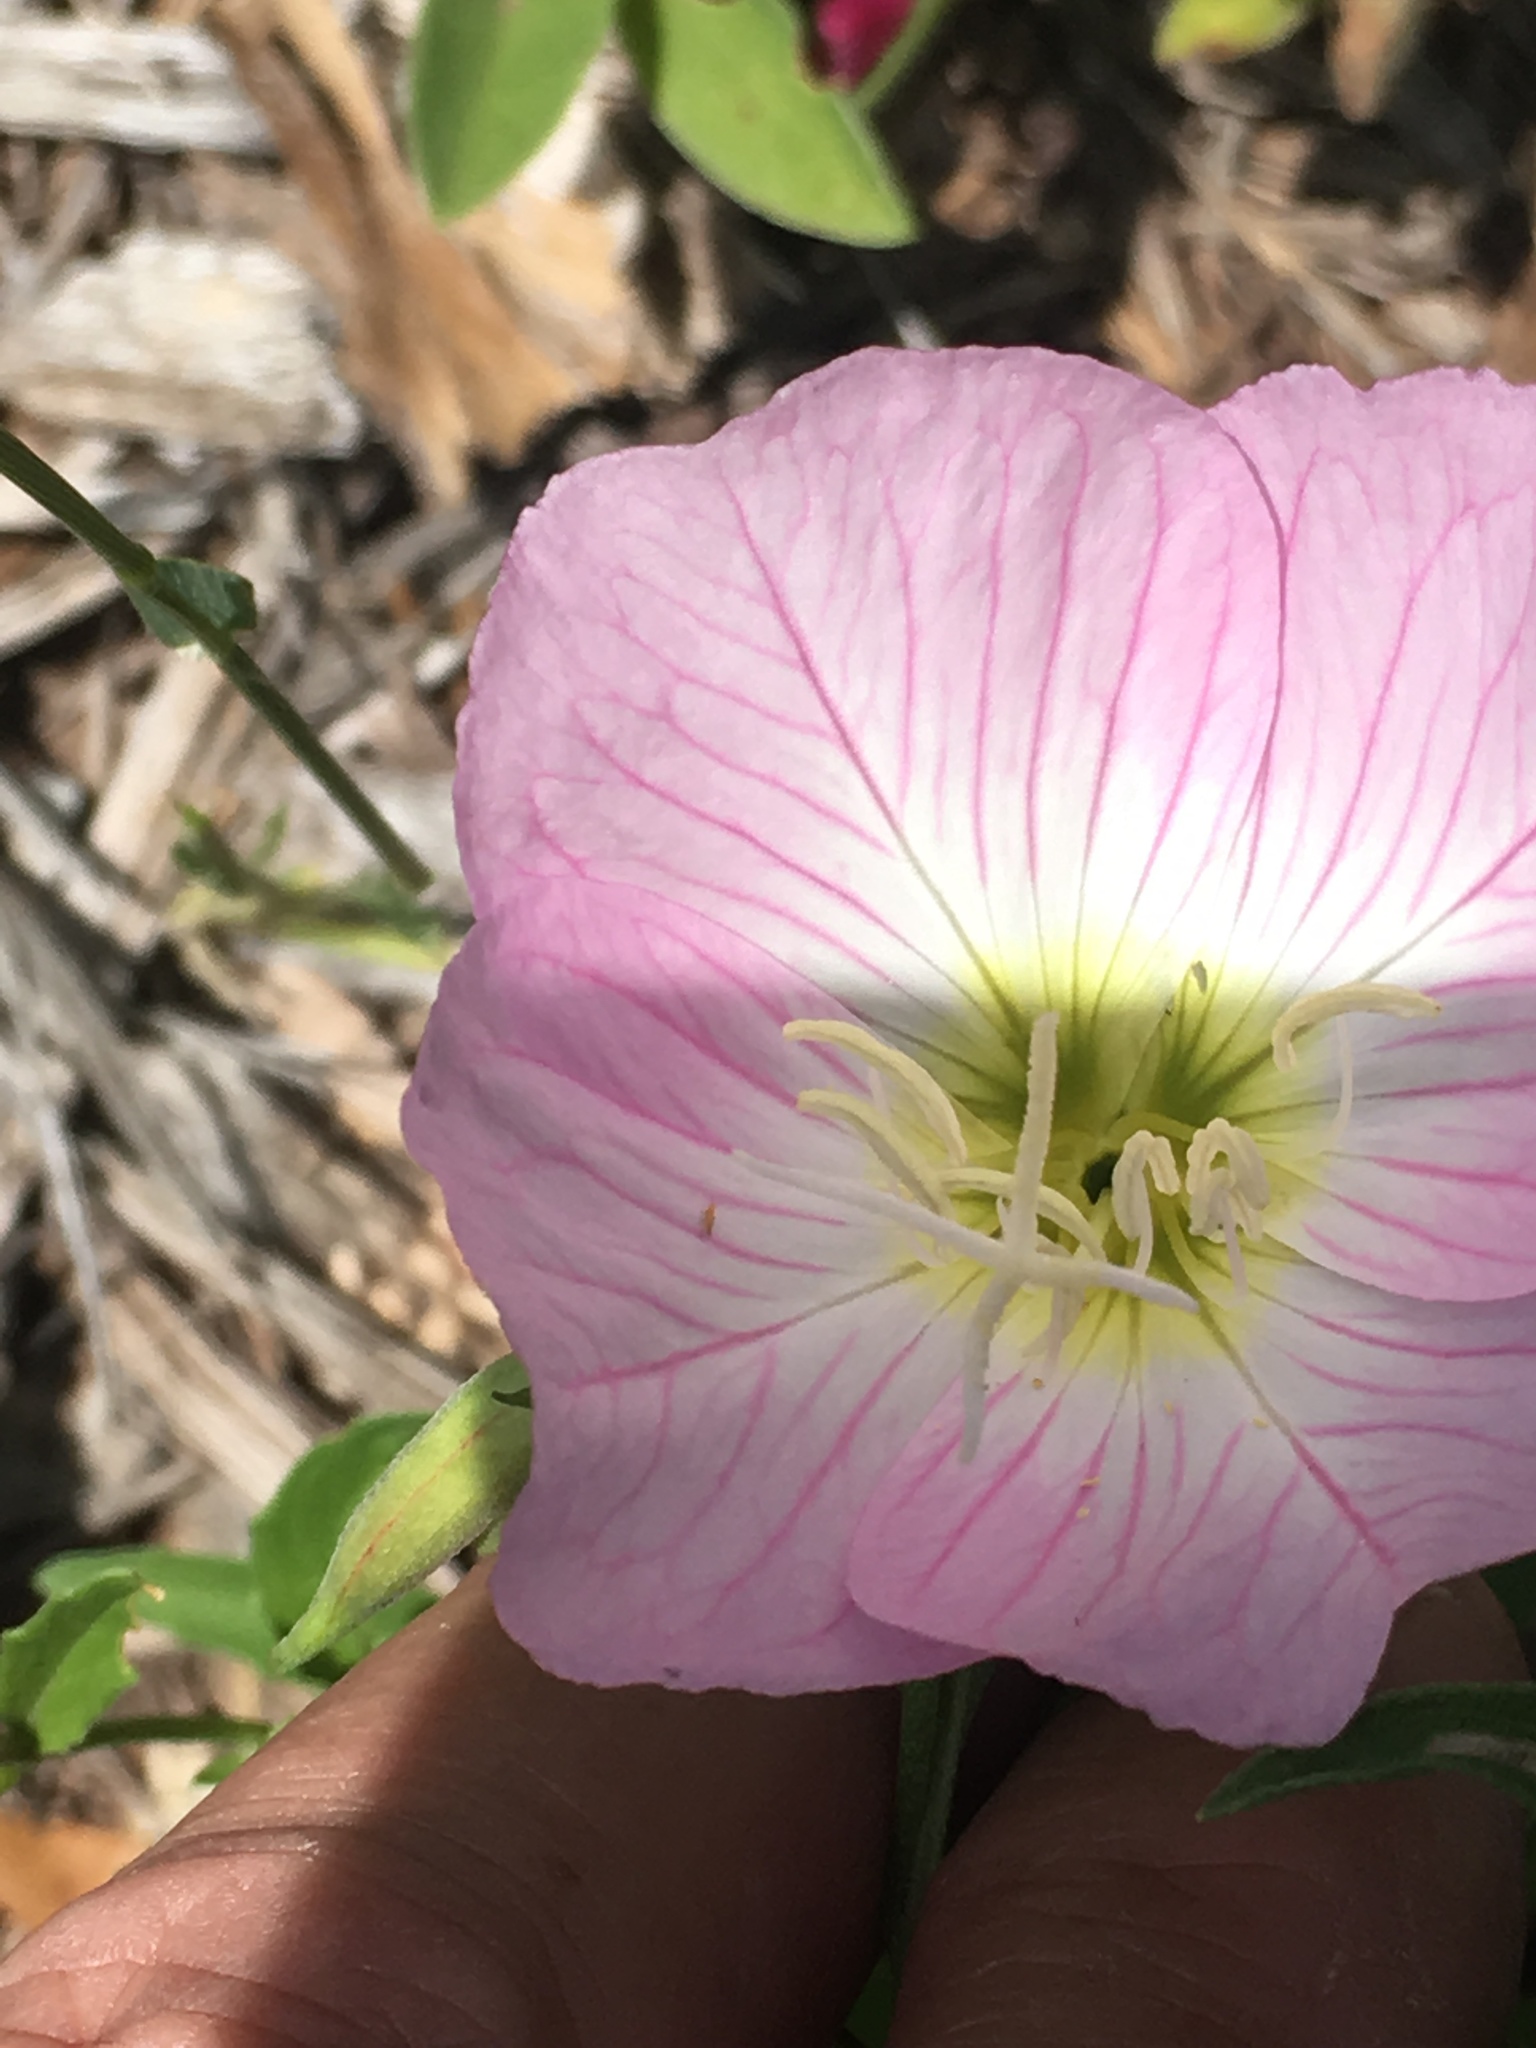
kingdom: Plantae
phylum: Tracheophyta
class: Magnoliopsida
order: Myrtales
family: Onagraceae
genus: Oenothera
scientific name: Oenothera speciosa
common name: White evening-primrose
